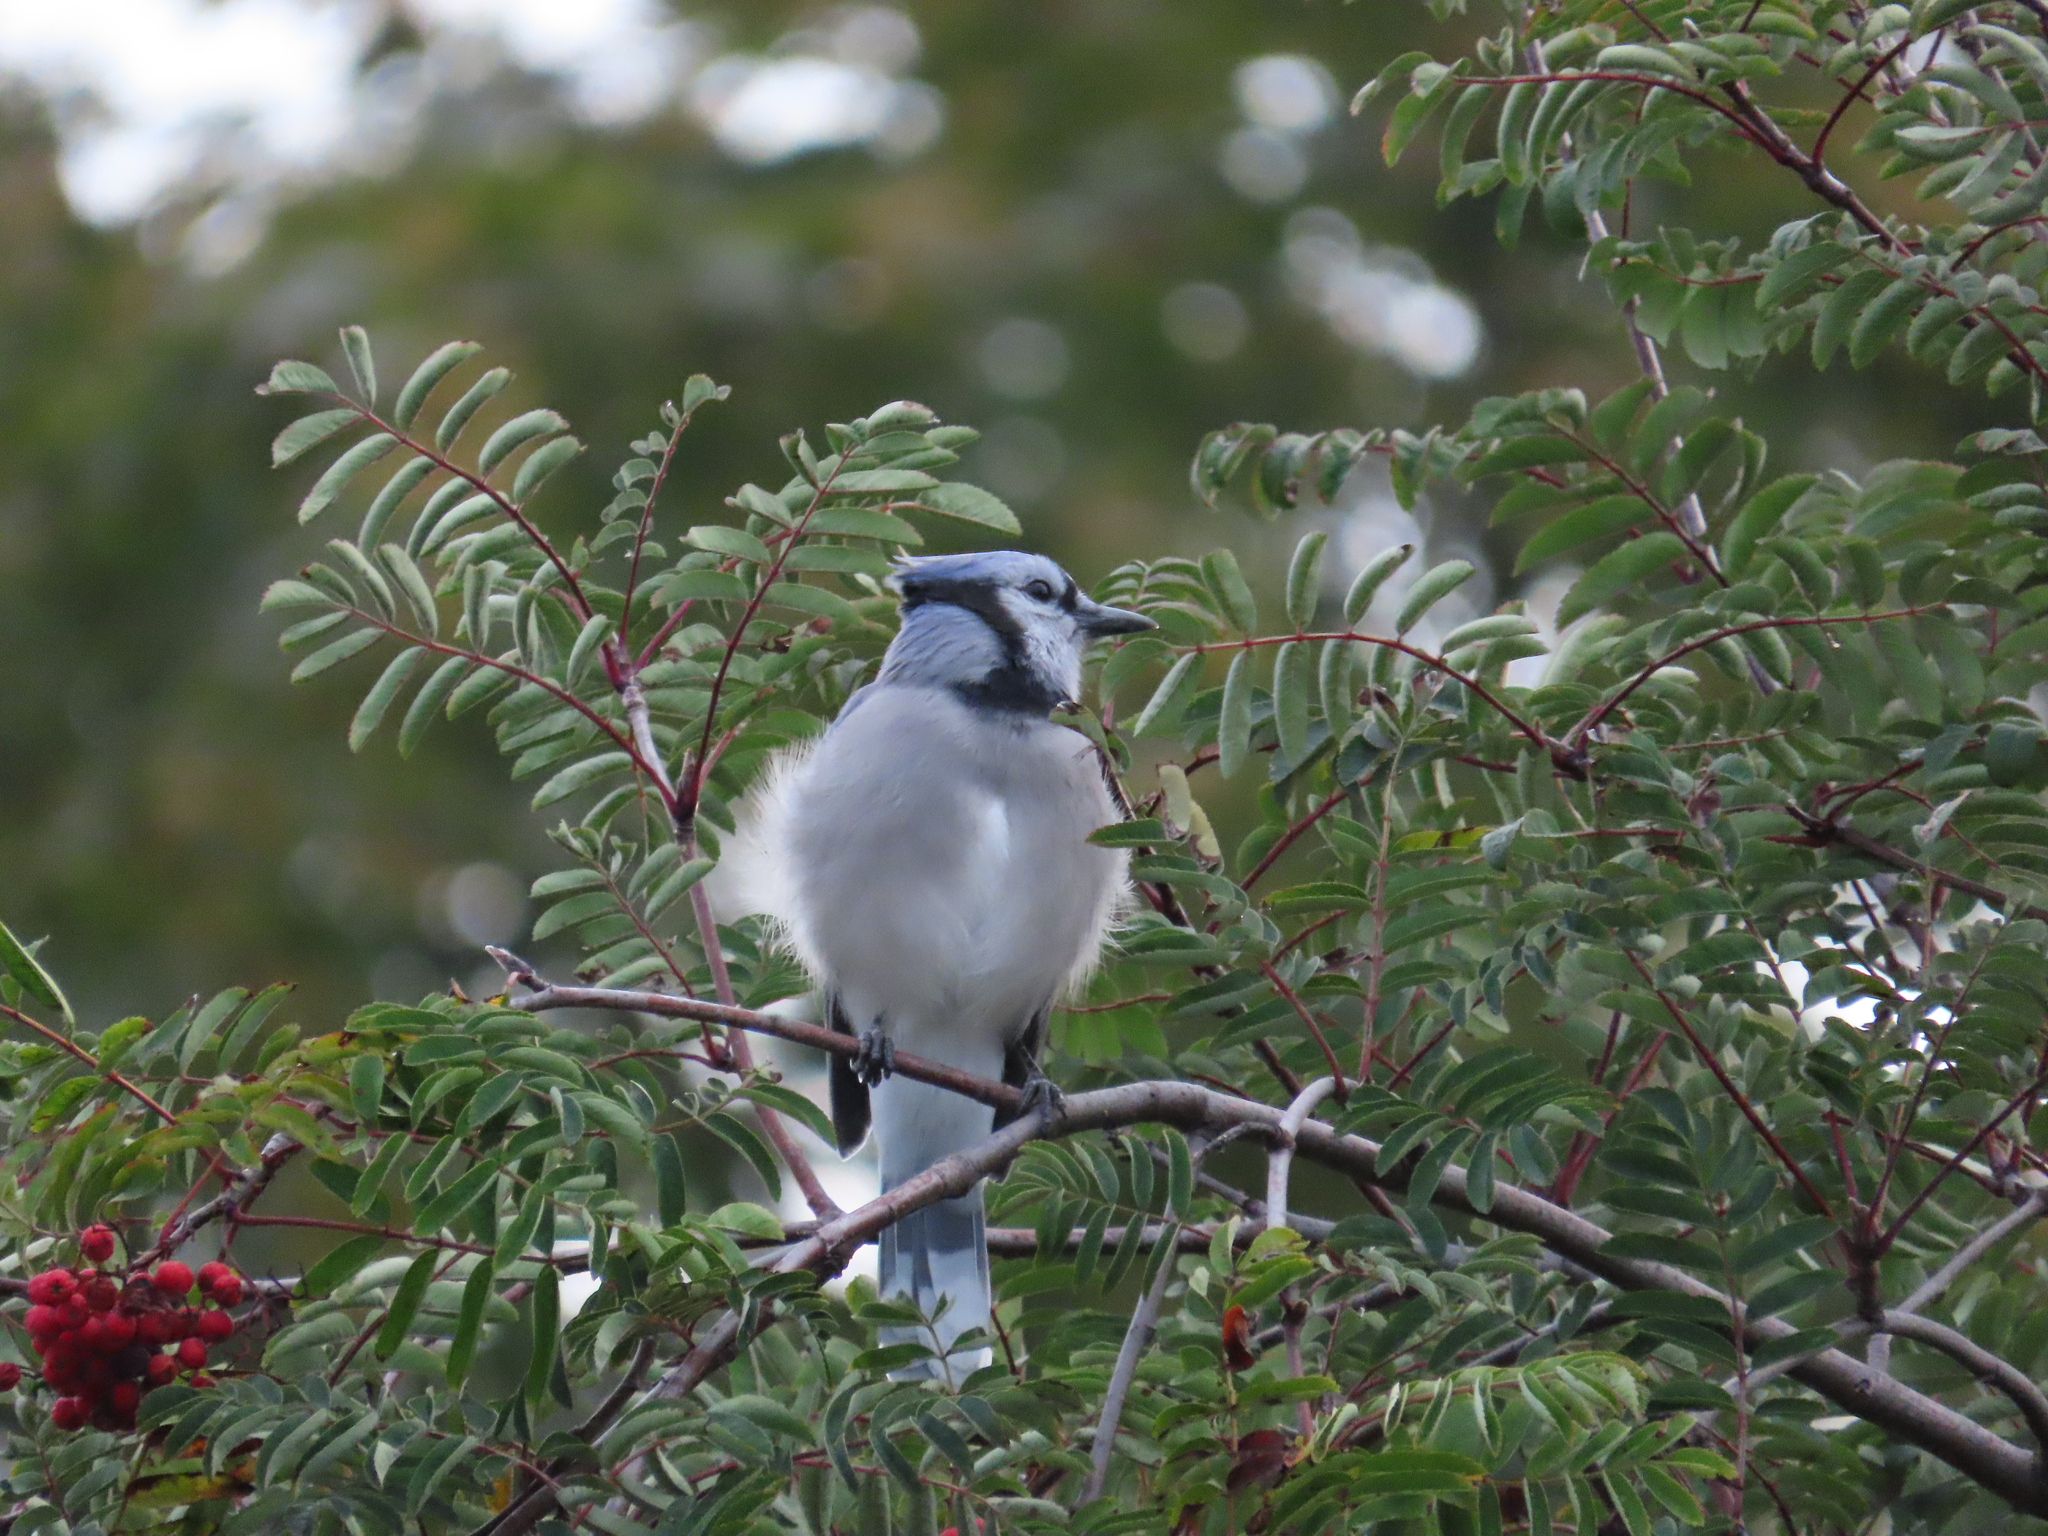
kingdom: Animalia
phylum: Chordata
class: Aves
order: Passeriformes
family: Corvidae
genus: Cyanocitta
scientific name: Cyanocitta cristata
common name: Blue jay
